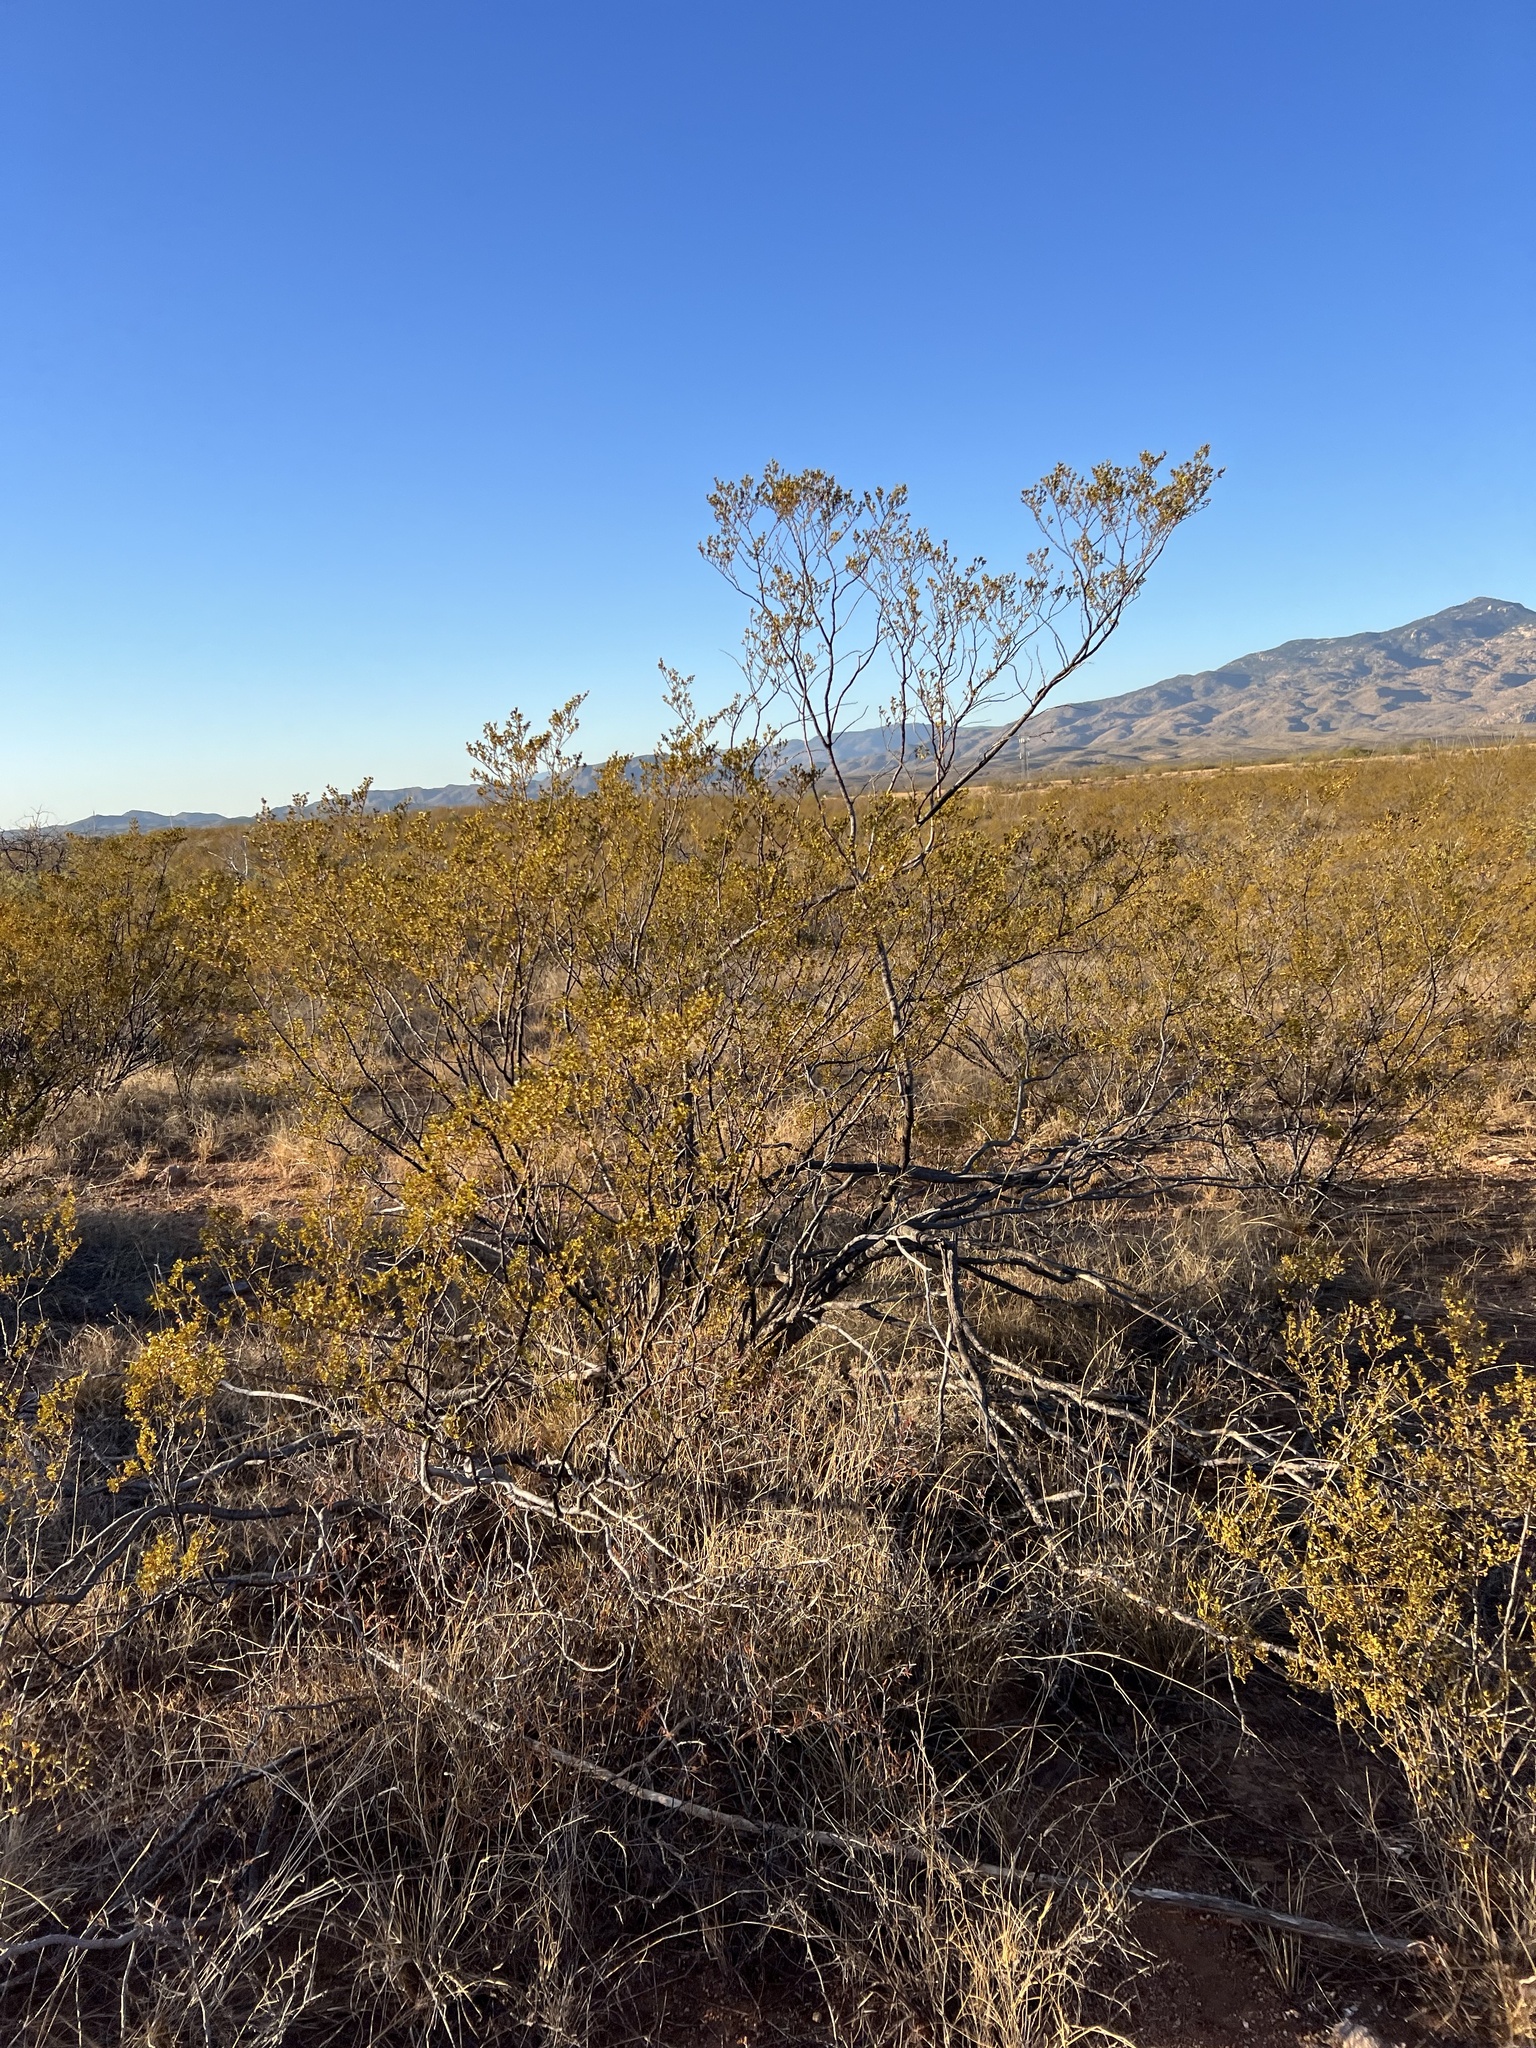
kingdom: Plantae
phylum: Tracheophyta
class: Magnoliopsida
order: Zygophyllales
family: Zygophyllaceae
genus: Larrea
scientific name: Larrea tridentata
